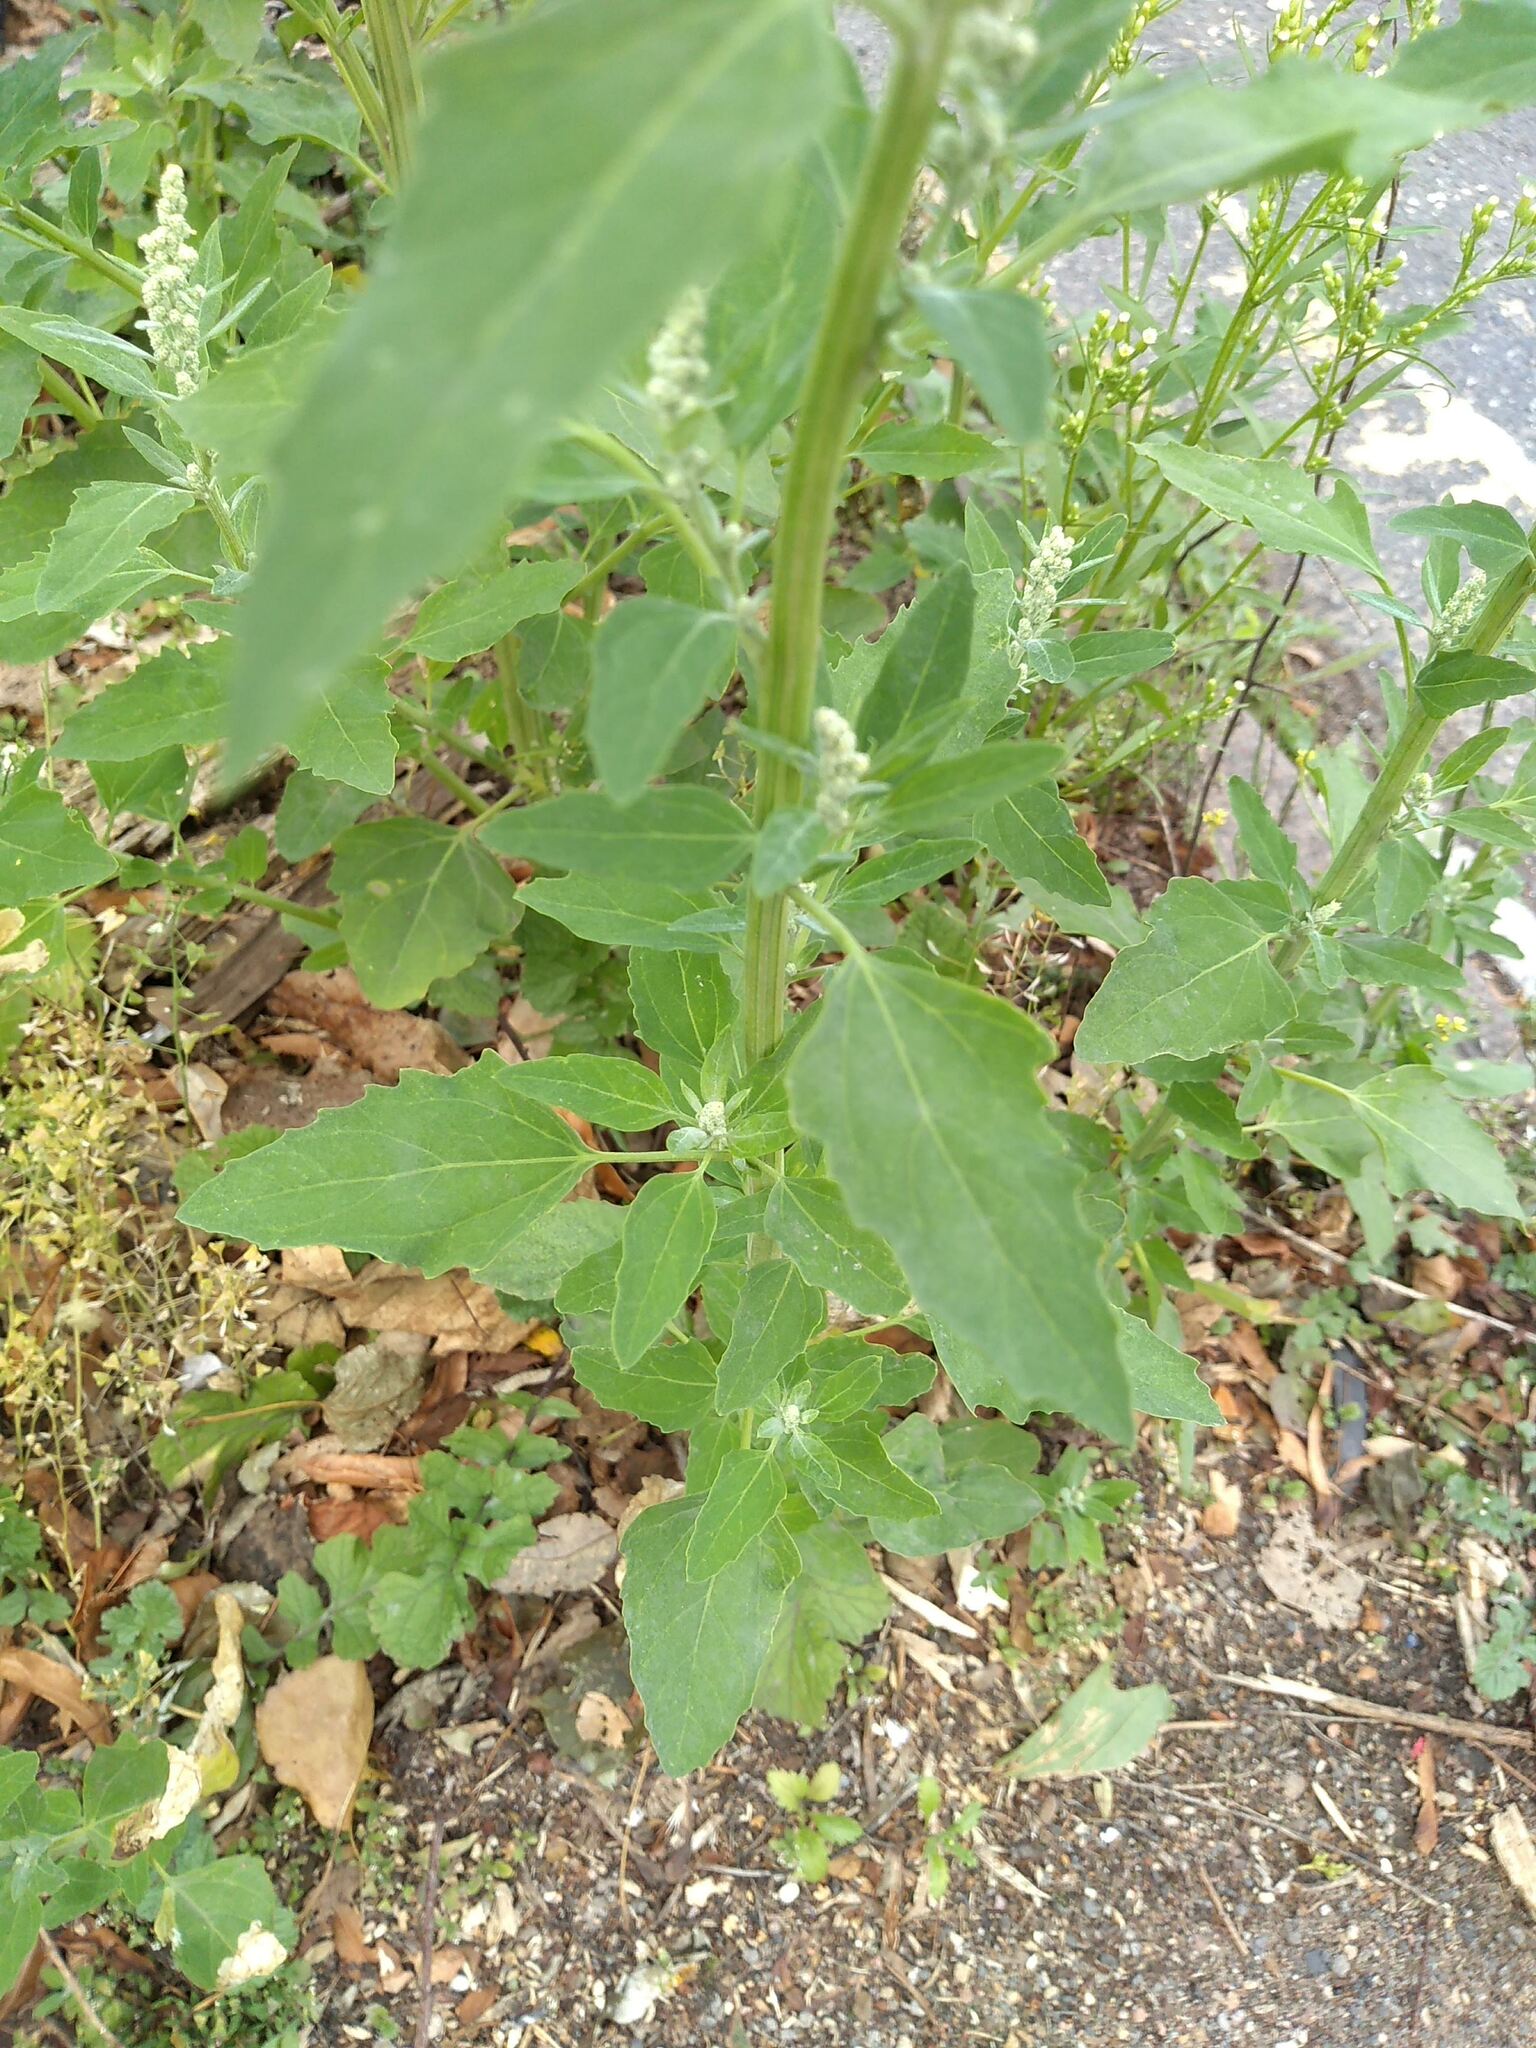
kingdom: Plantae
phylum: Tracheophyta
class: Magnoliopsida
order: Caryophyllales
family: Amaranthaceae
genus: Chenopodium
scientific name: Chenopodium album
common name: Fat-hen
